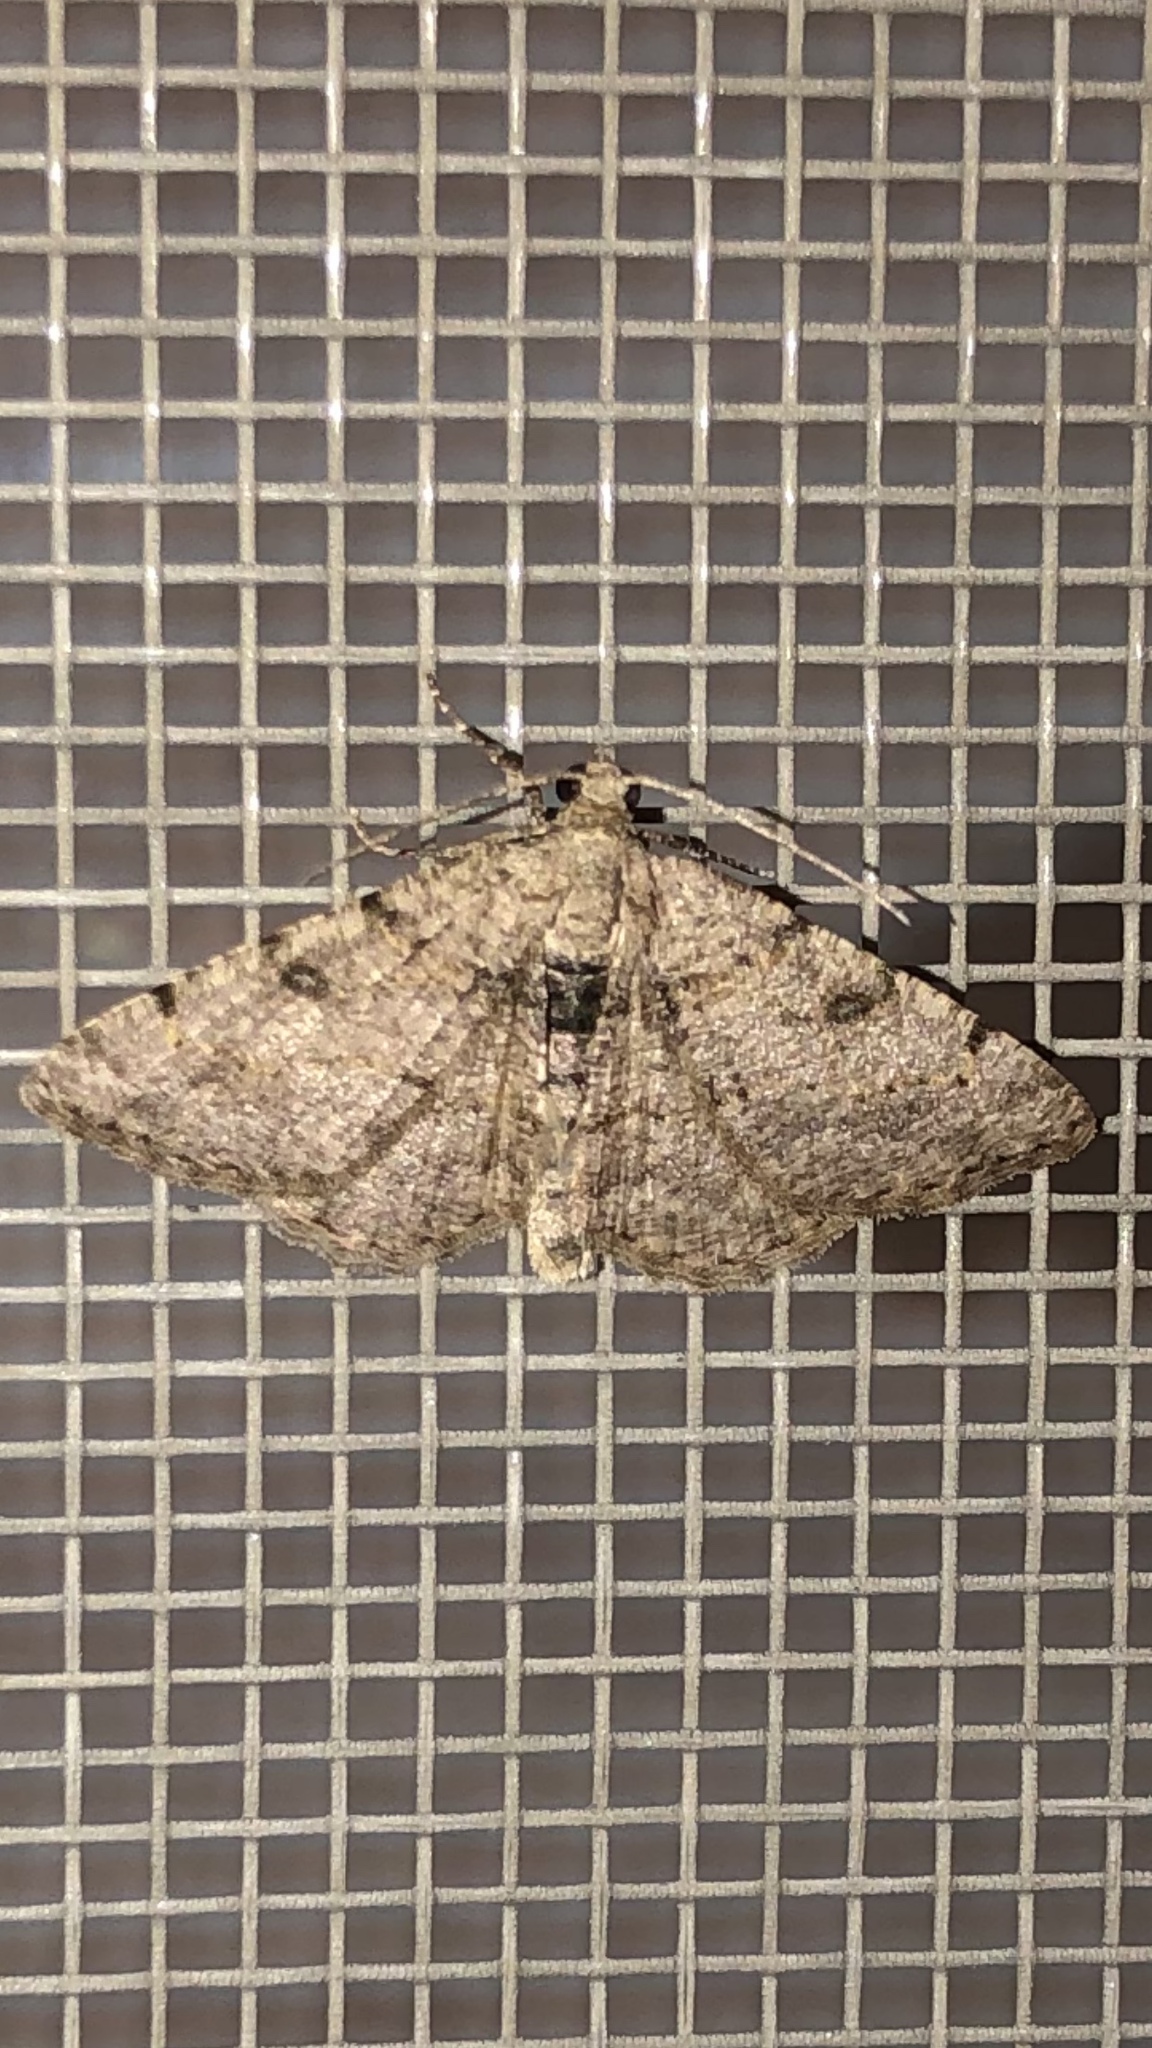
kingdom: Animalia
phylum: Arthropoda
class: Insecta
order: Lepidoptera
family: Geometridae
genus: Digrammia
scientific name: Digrammia gnophosaria
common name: Hollow-spotted angle
